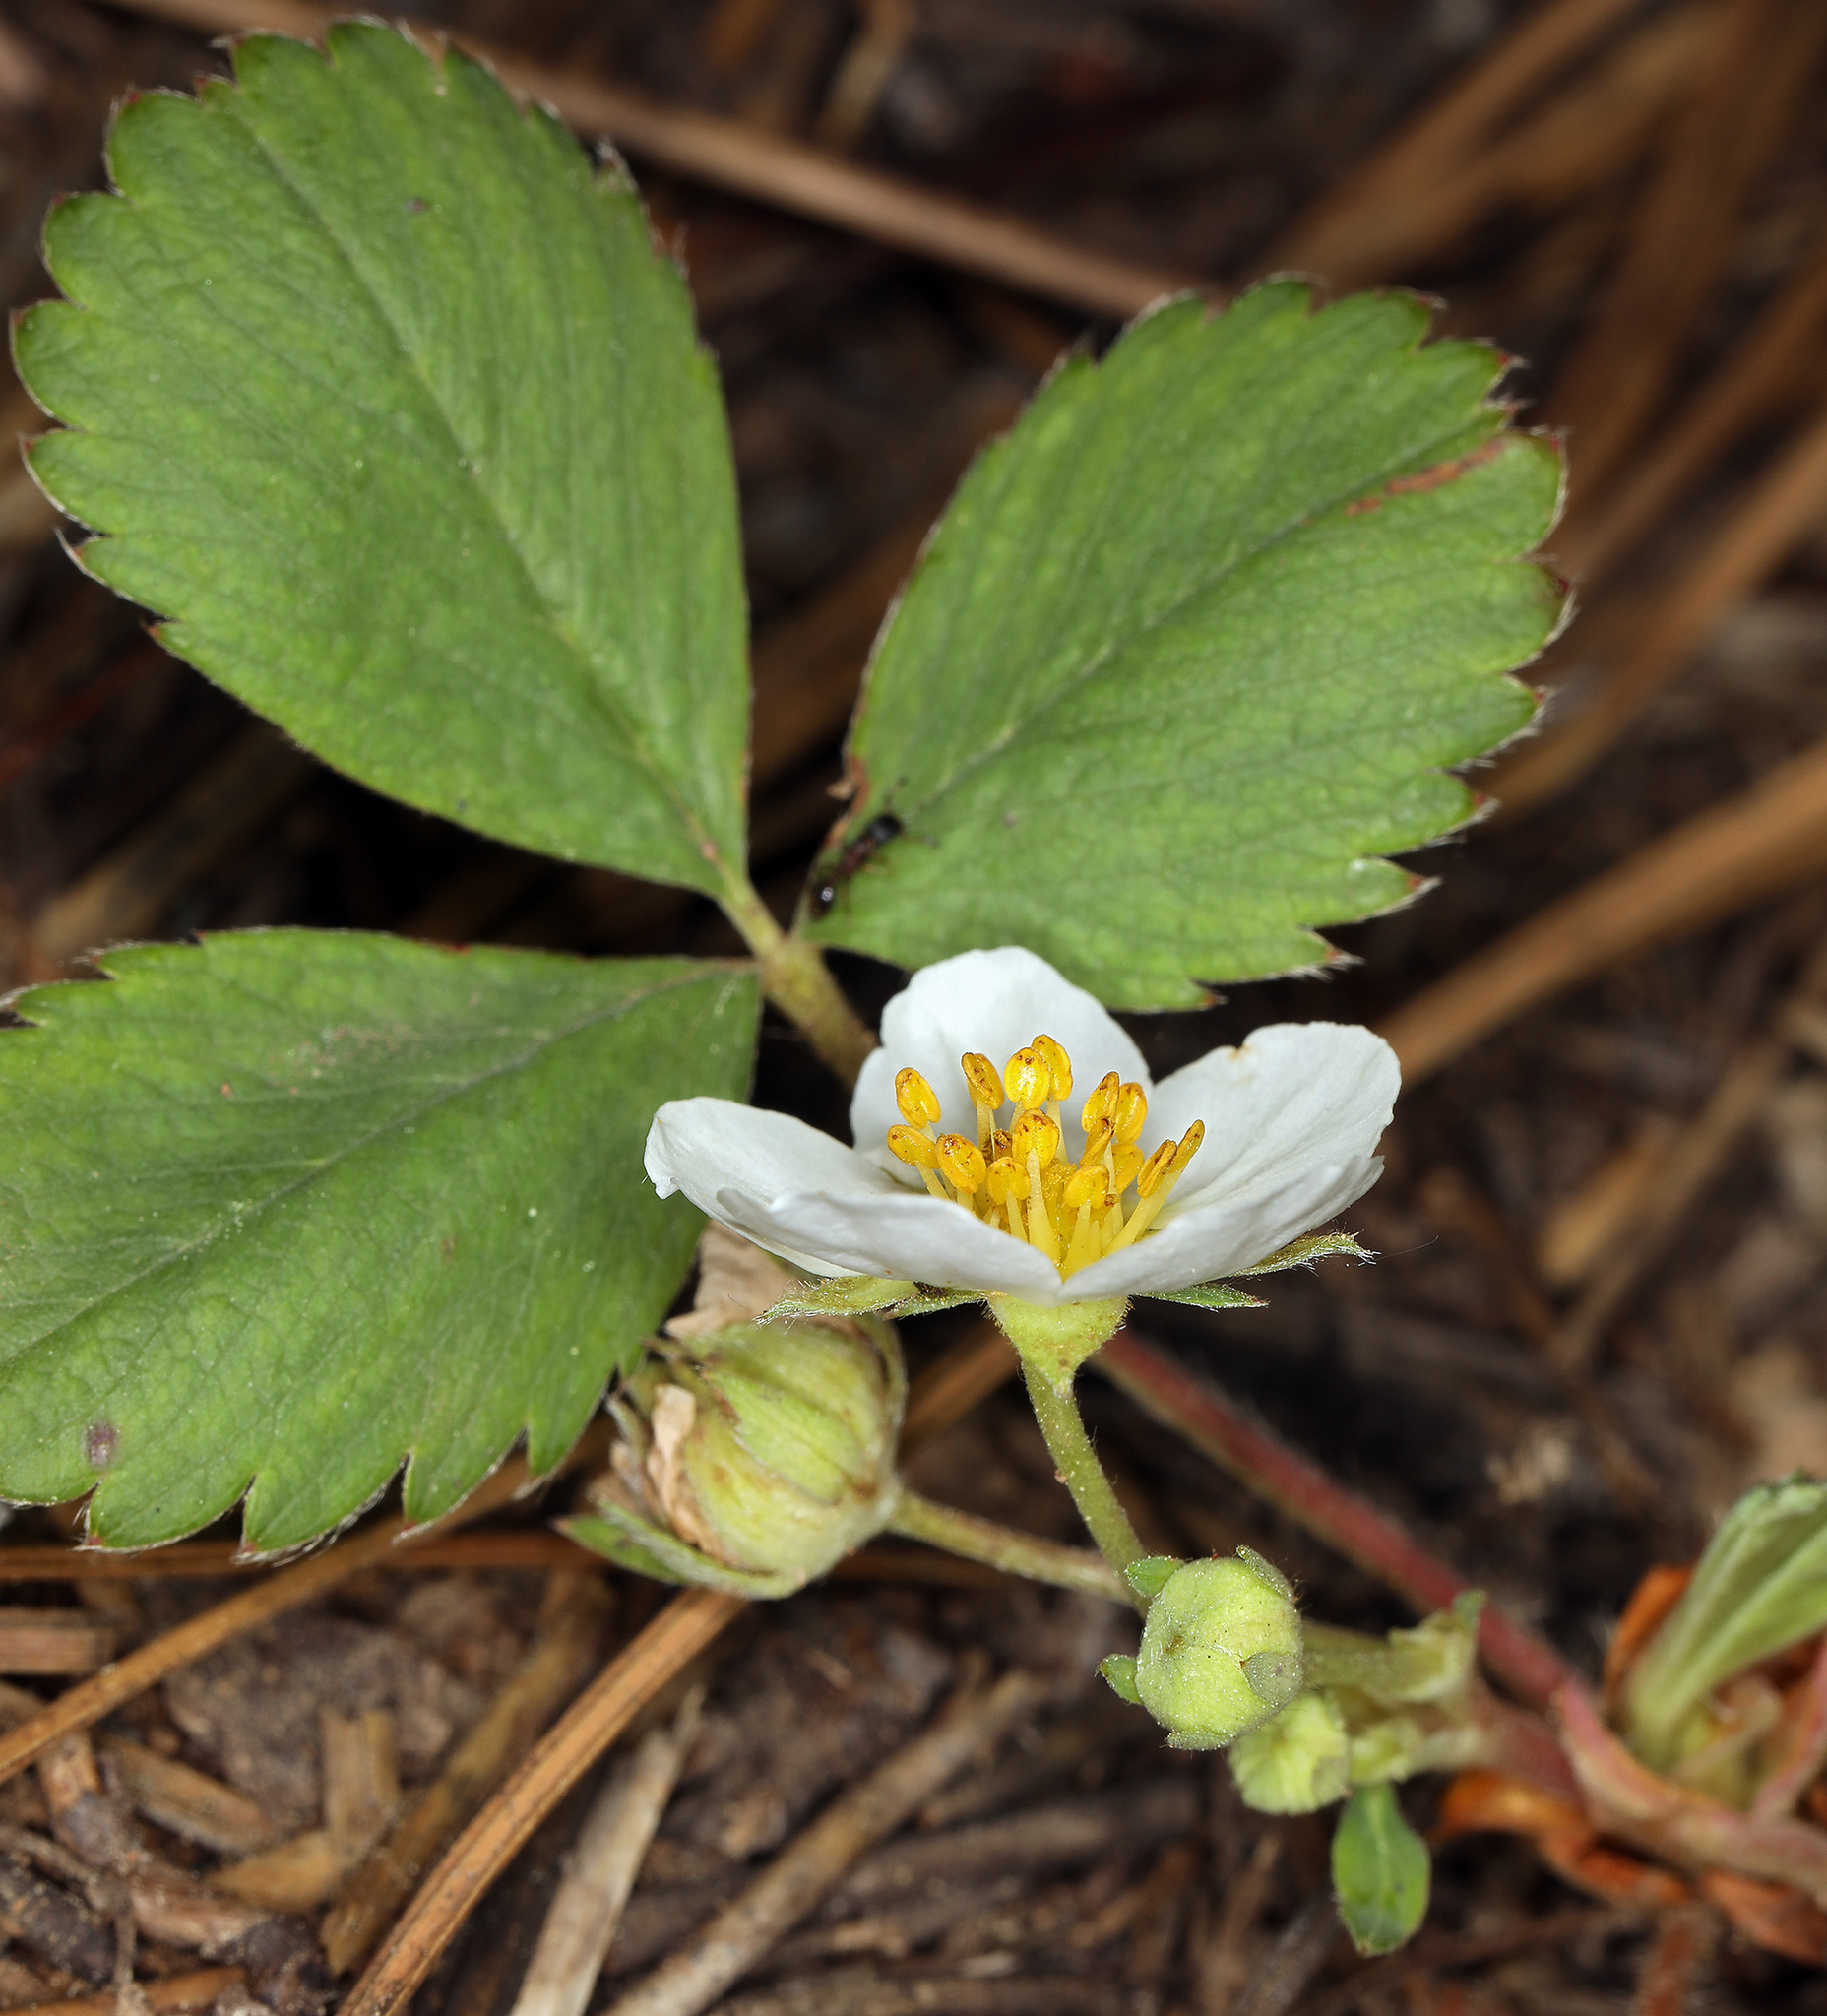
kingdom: Plantae
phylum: Tracheophyta
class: Magnoliopsida
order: Rosales
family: Rosaceae
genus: Fragaria
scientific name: Fragaria virginiana
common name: Thickleaved wild strawberry
